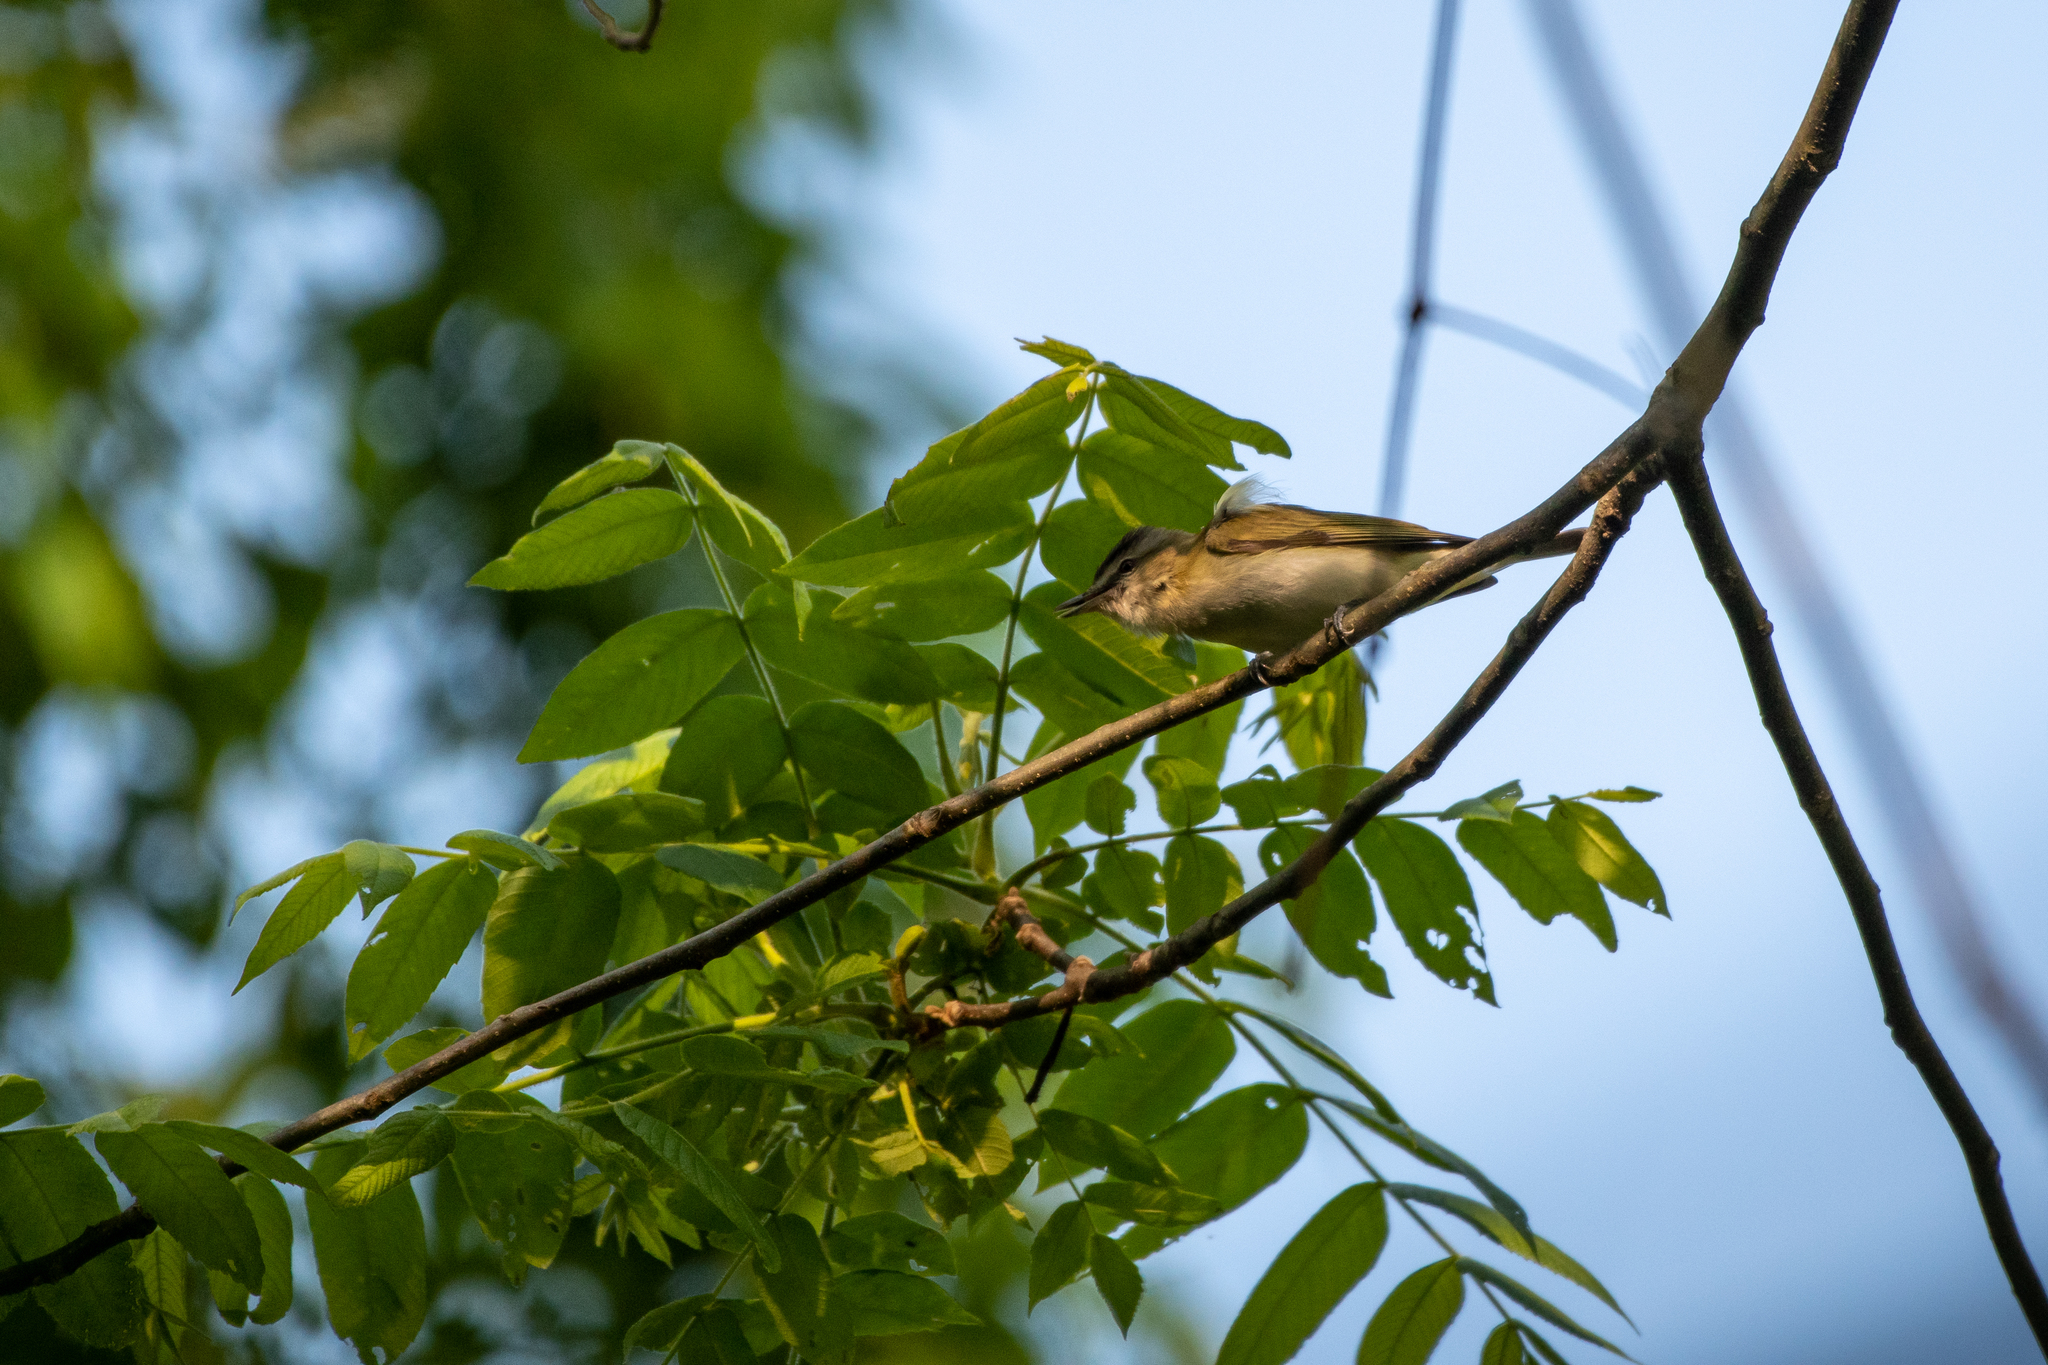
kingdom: Animalia
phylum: Chordata
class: Aves
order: Passeriformes
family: Vireonidae
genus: Vireo
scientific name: Vireo olivaceus
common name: Red-eyed vireo
